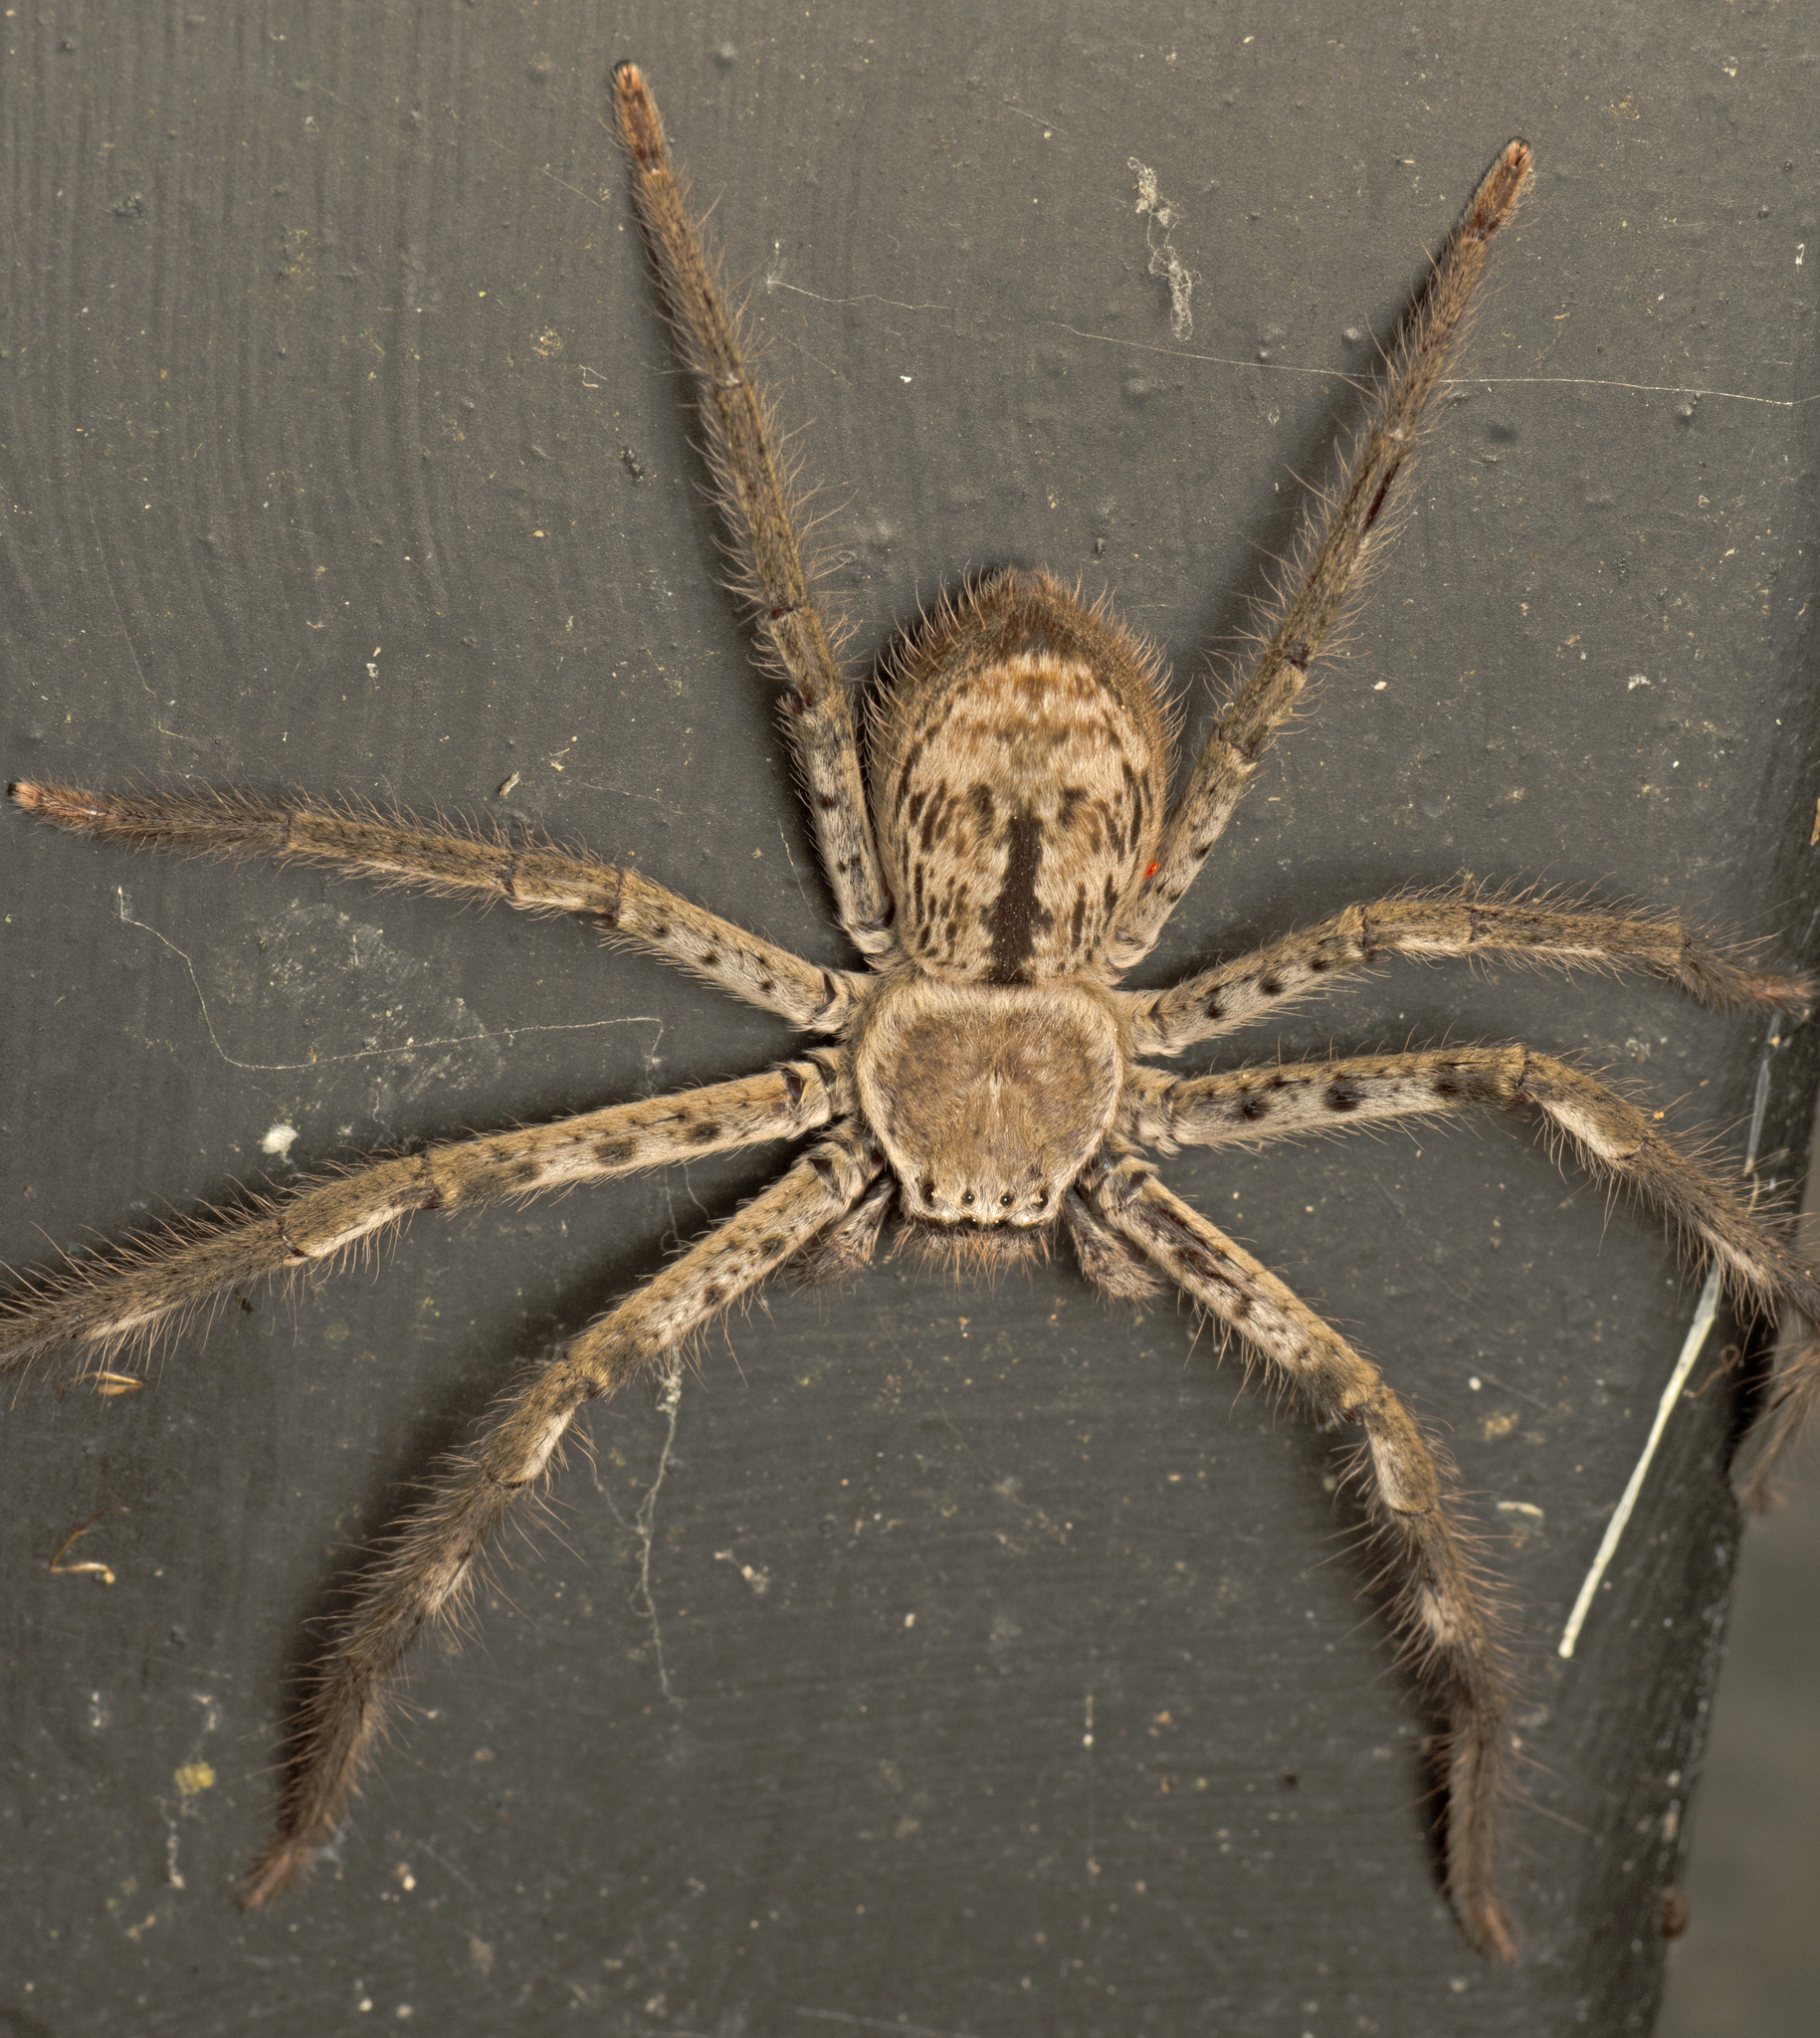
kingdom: Animalia
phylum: Arthropoda
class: Arachnida
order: Araneae
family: Sparassidae
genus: Holconia
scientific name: Holconia immanis
